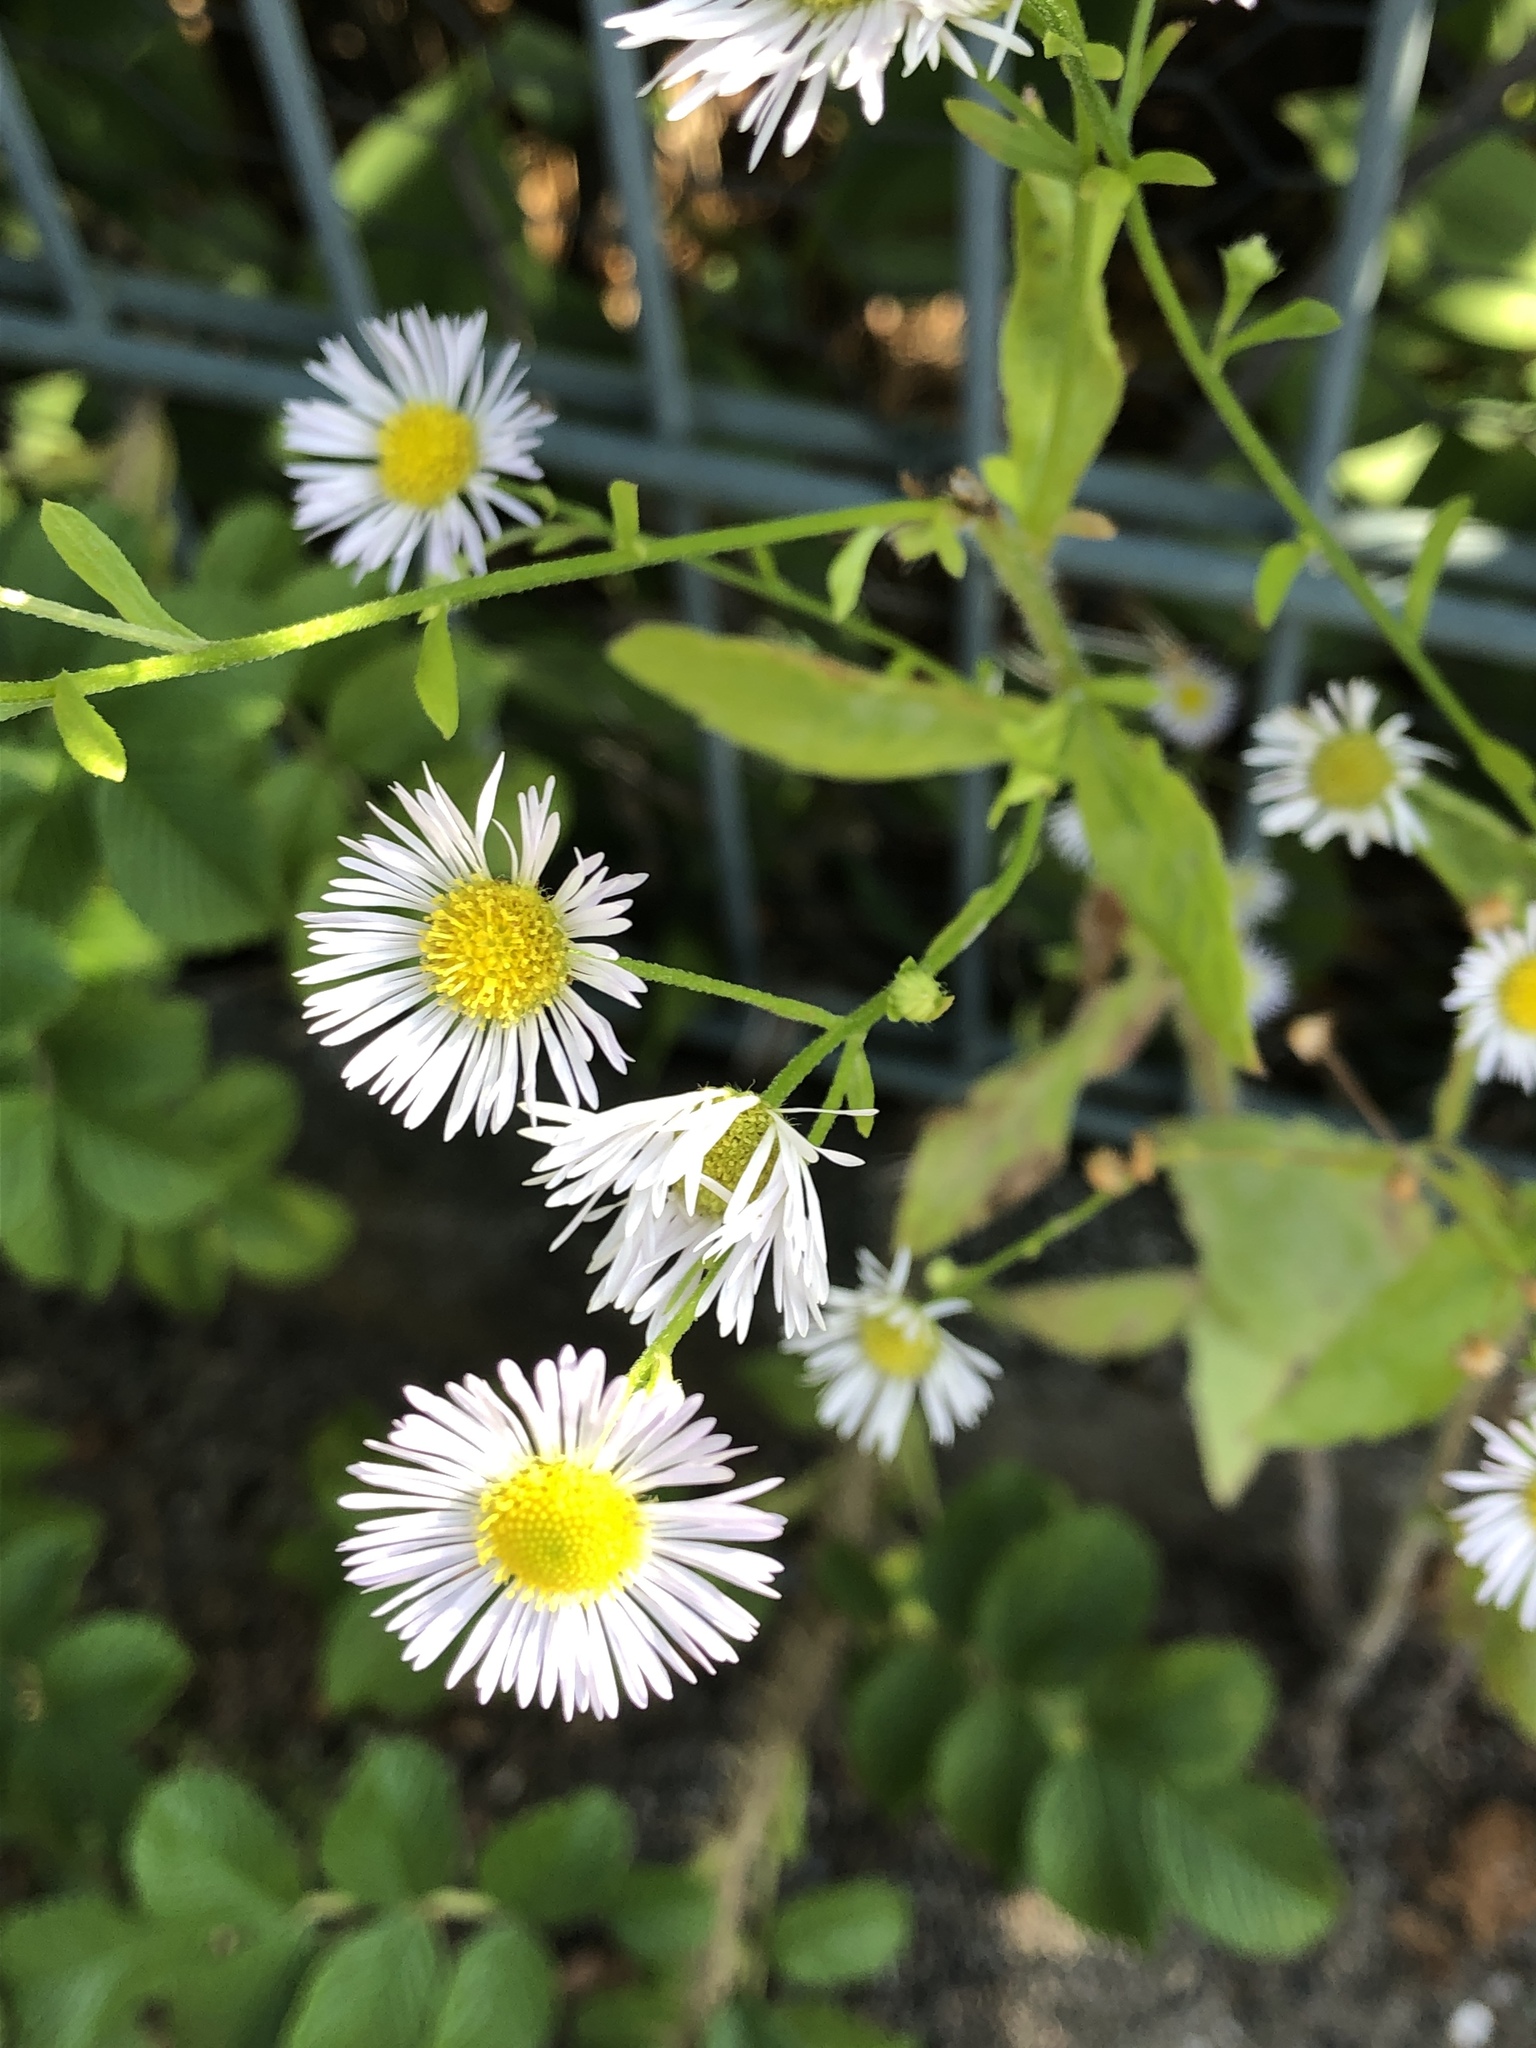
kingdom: Plantae
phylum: Tracheophyta
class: Magnoliopsida
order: Asterales
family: Asteraceae
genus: Erigeron
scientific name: Erigeron annuus
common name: Tall fleabane
